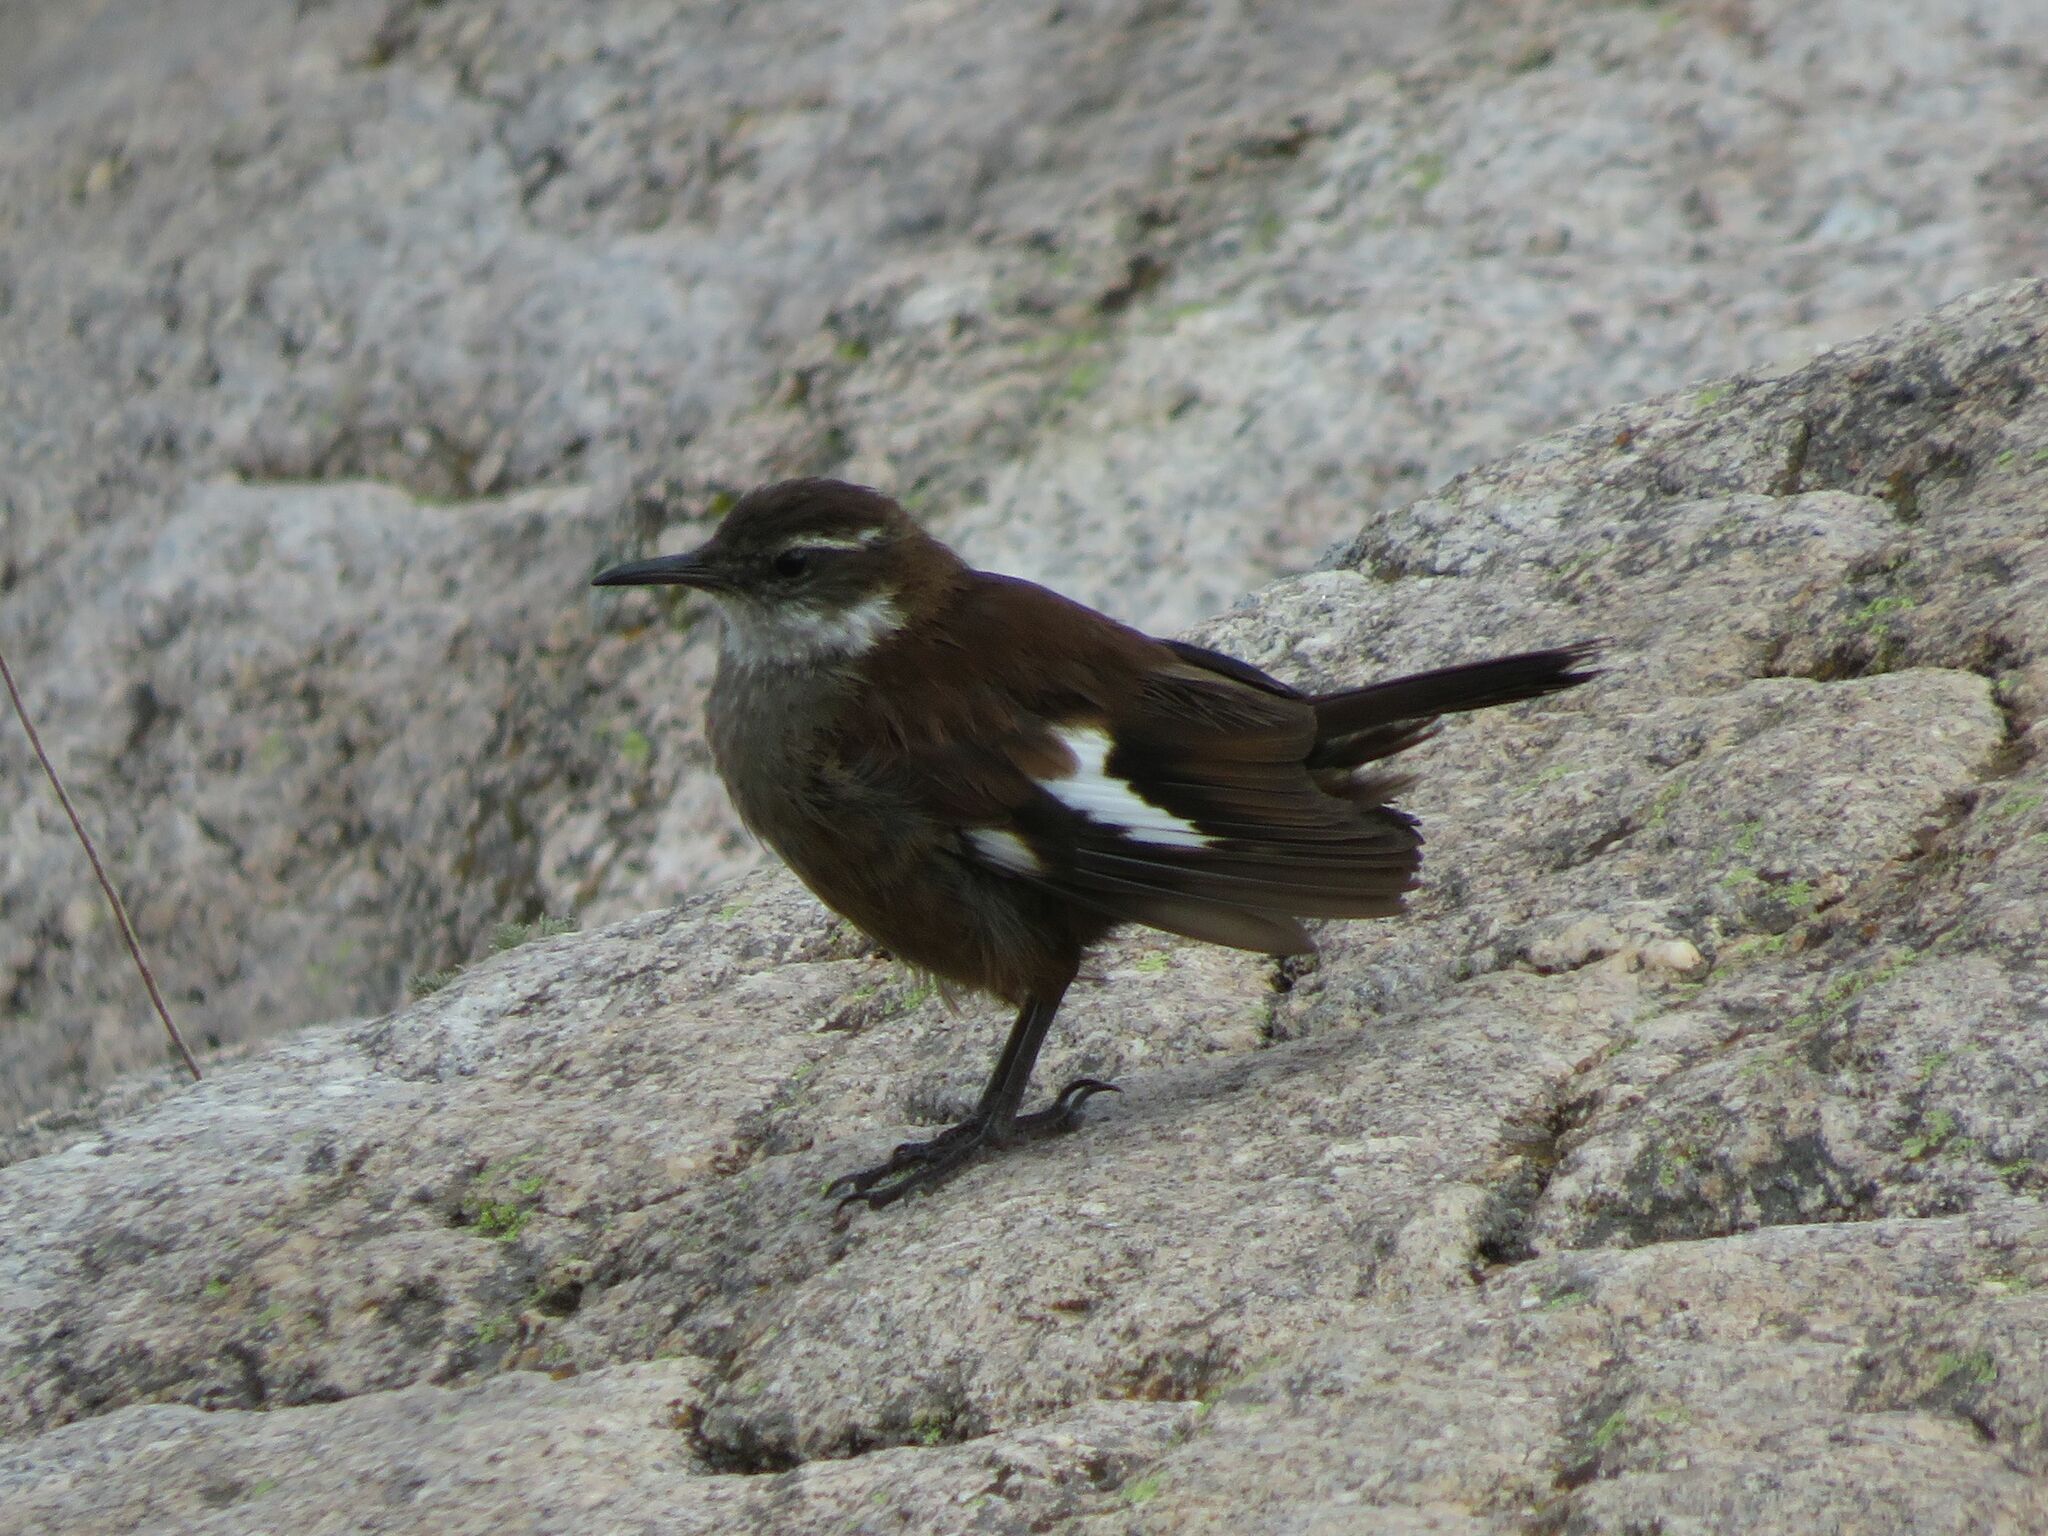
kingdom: Animalia
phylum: Chordata
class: Aves
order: Passeriformes
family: Furnariidae
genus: Cinclodes
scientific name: Cinclodes atacamensis
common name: White-winged cinclodes
